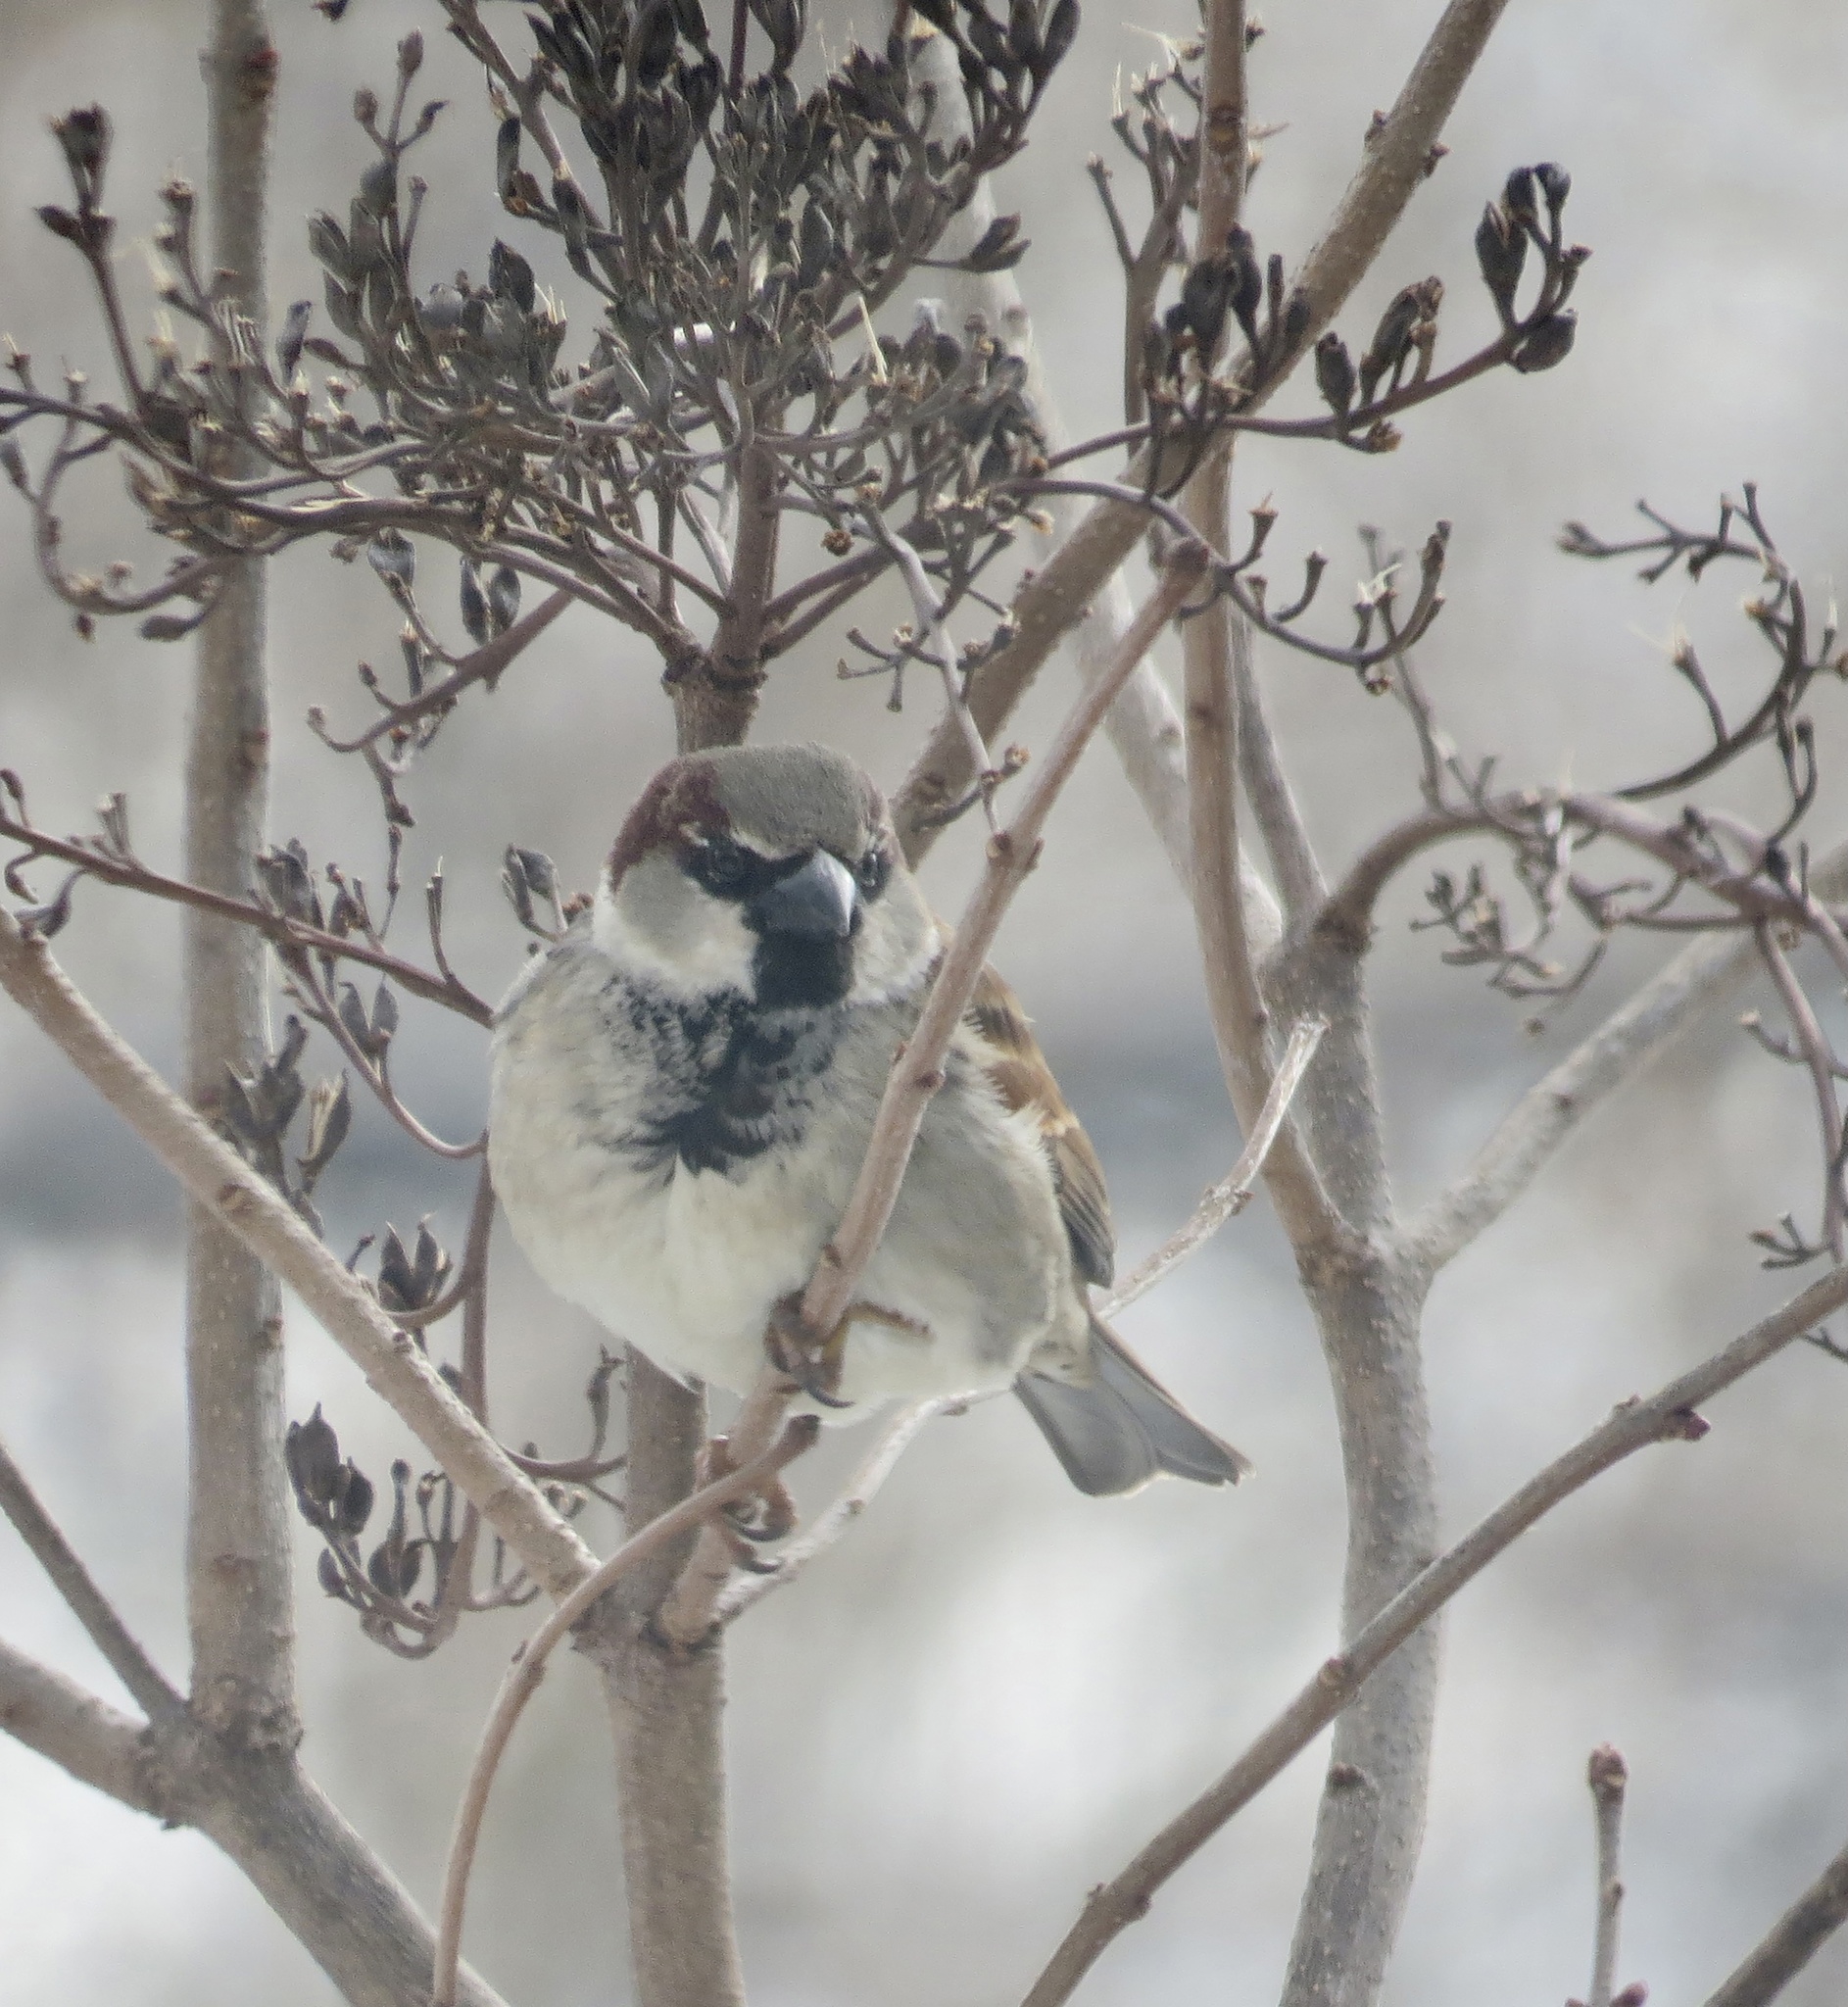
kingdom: Animalia
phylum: Chordata
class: Aves
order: Passeriformes
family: Passeridae
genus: Passer
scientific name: Passer domesticus
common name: House sparrow
